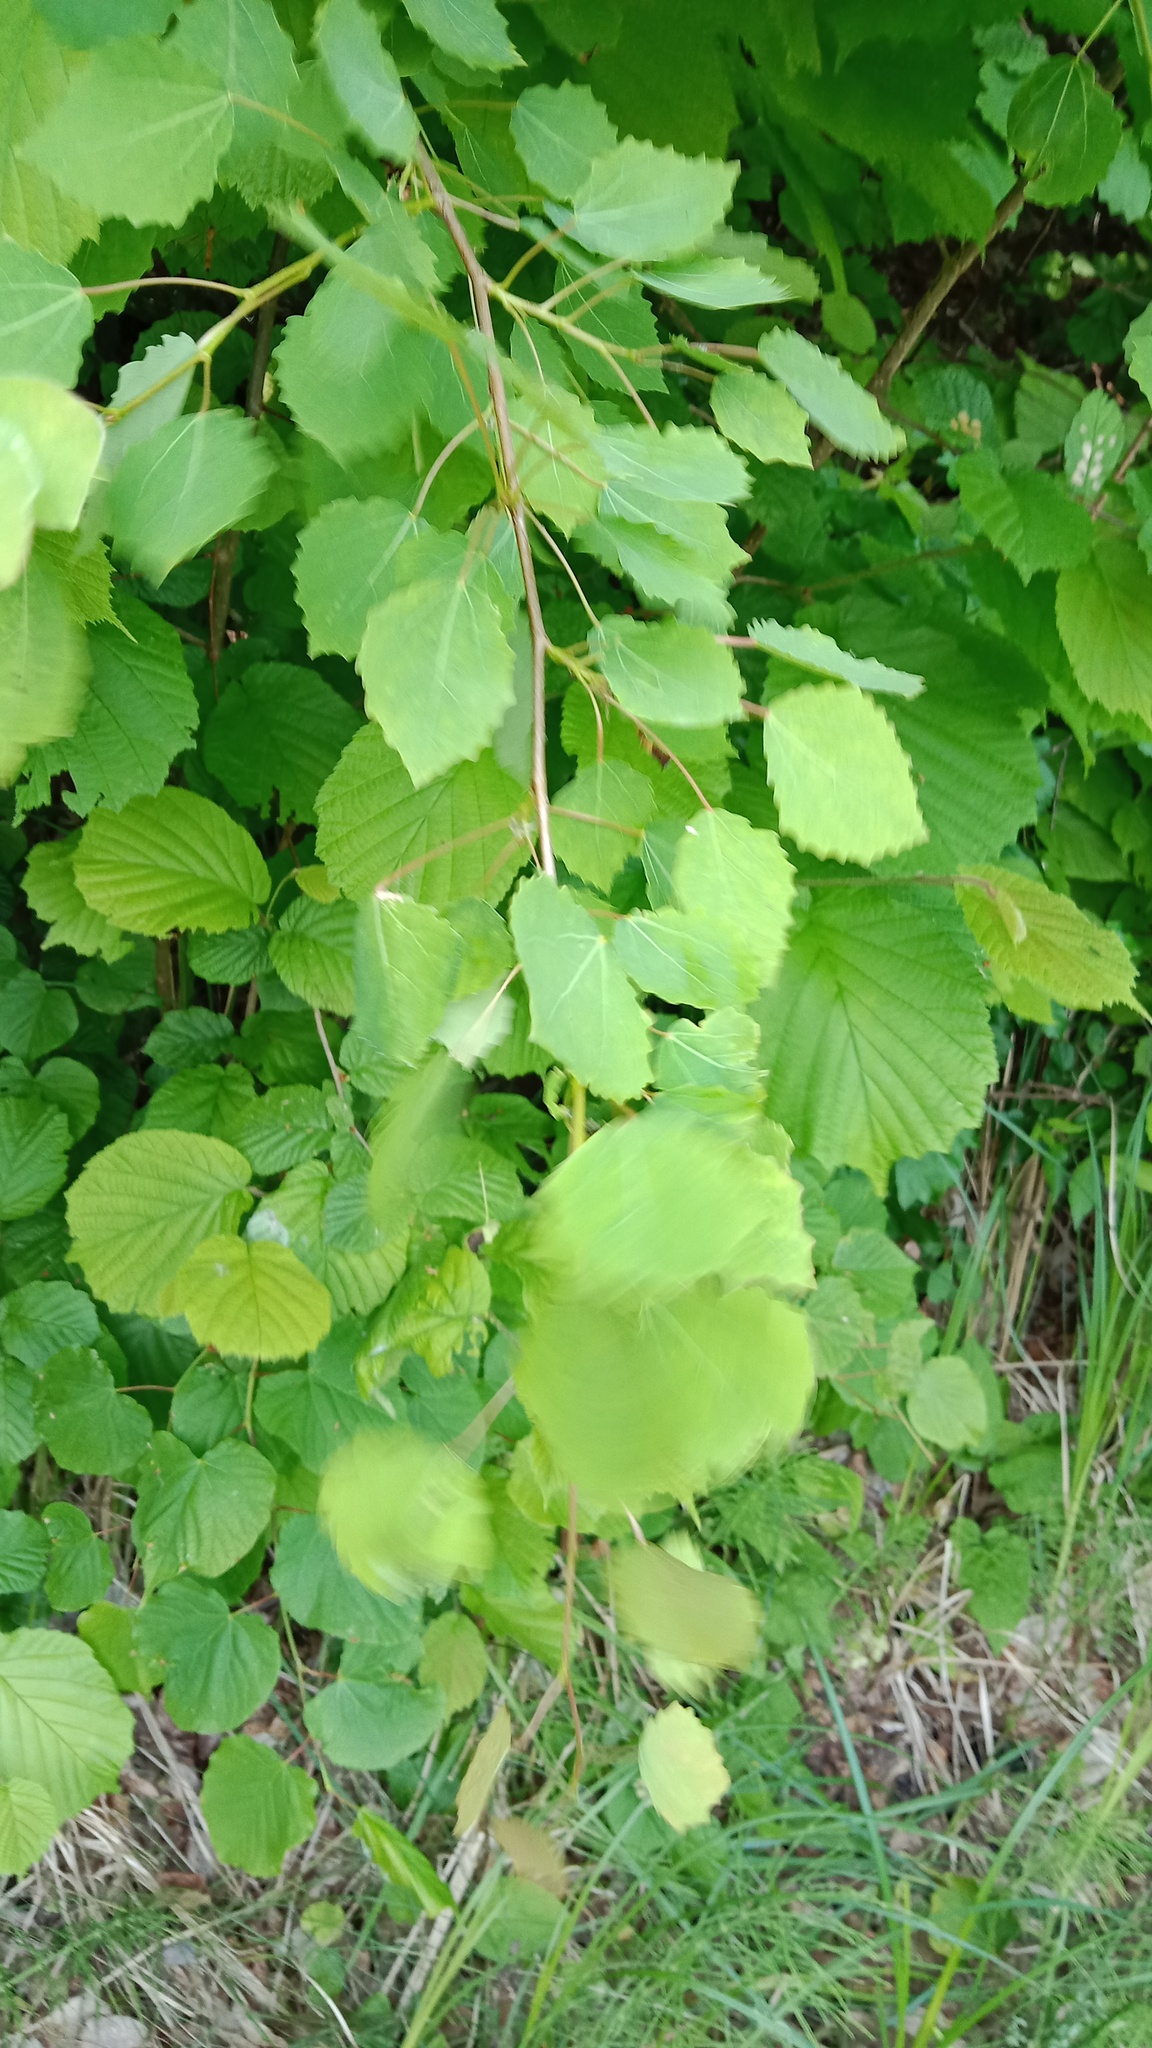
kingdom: Plantae
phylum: Tracheophyta
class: Magnoliopsida
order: Malpighiales
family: Salicaceae
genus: Populus
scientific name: Populus tremula
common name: European aspen
